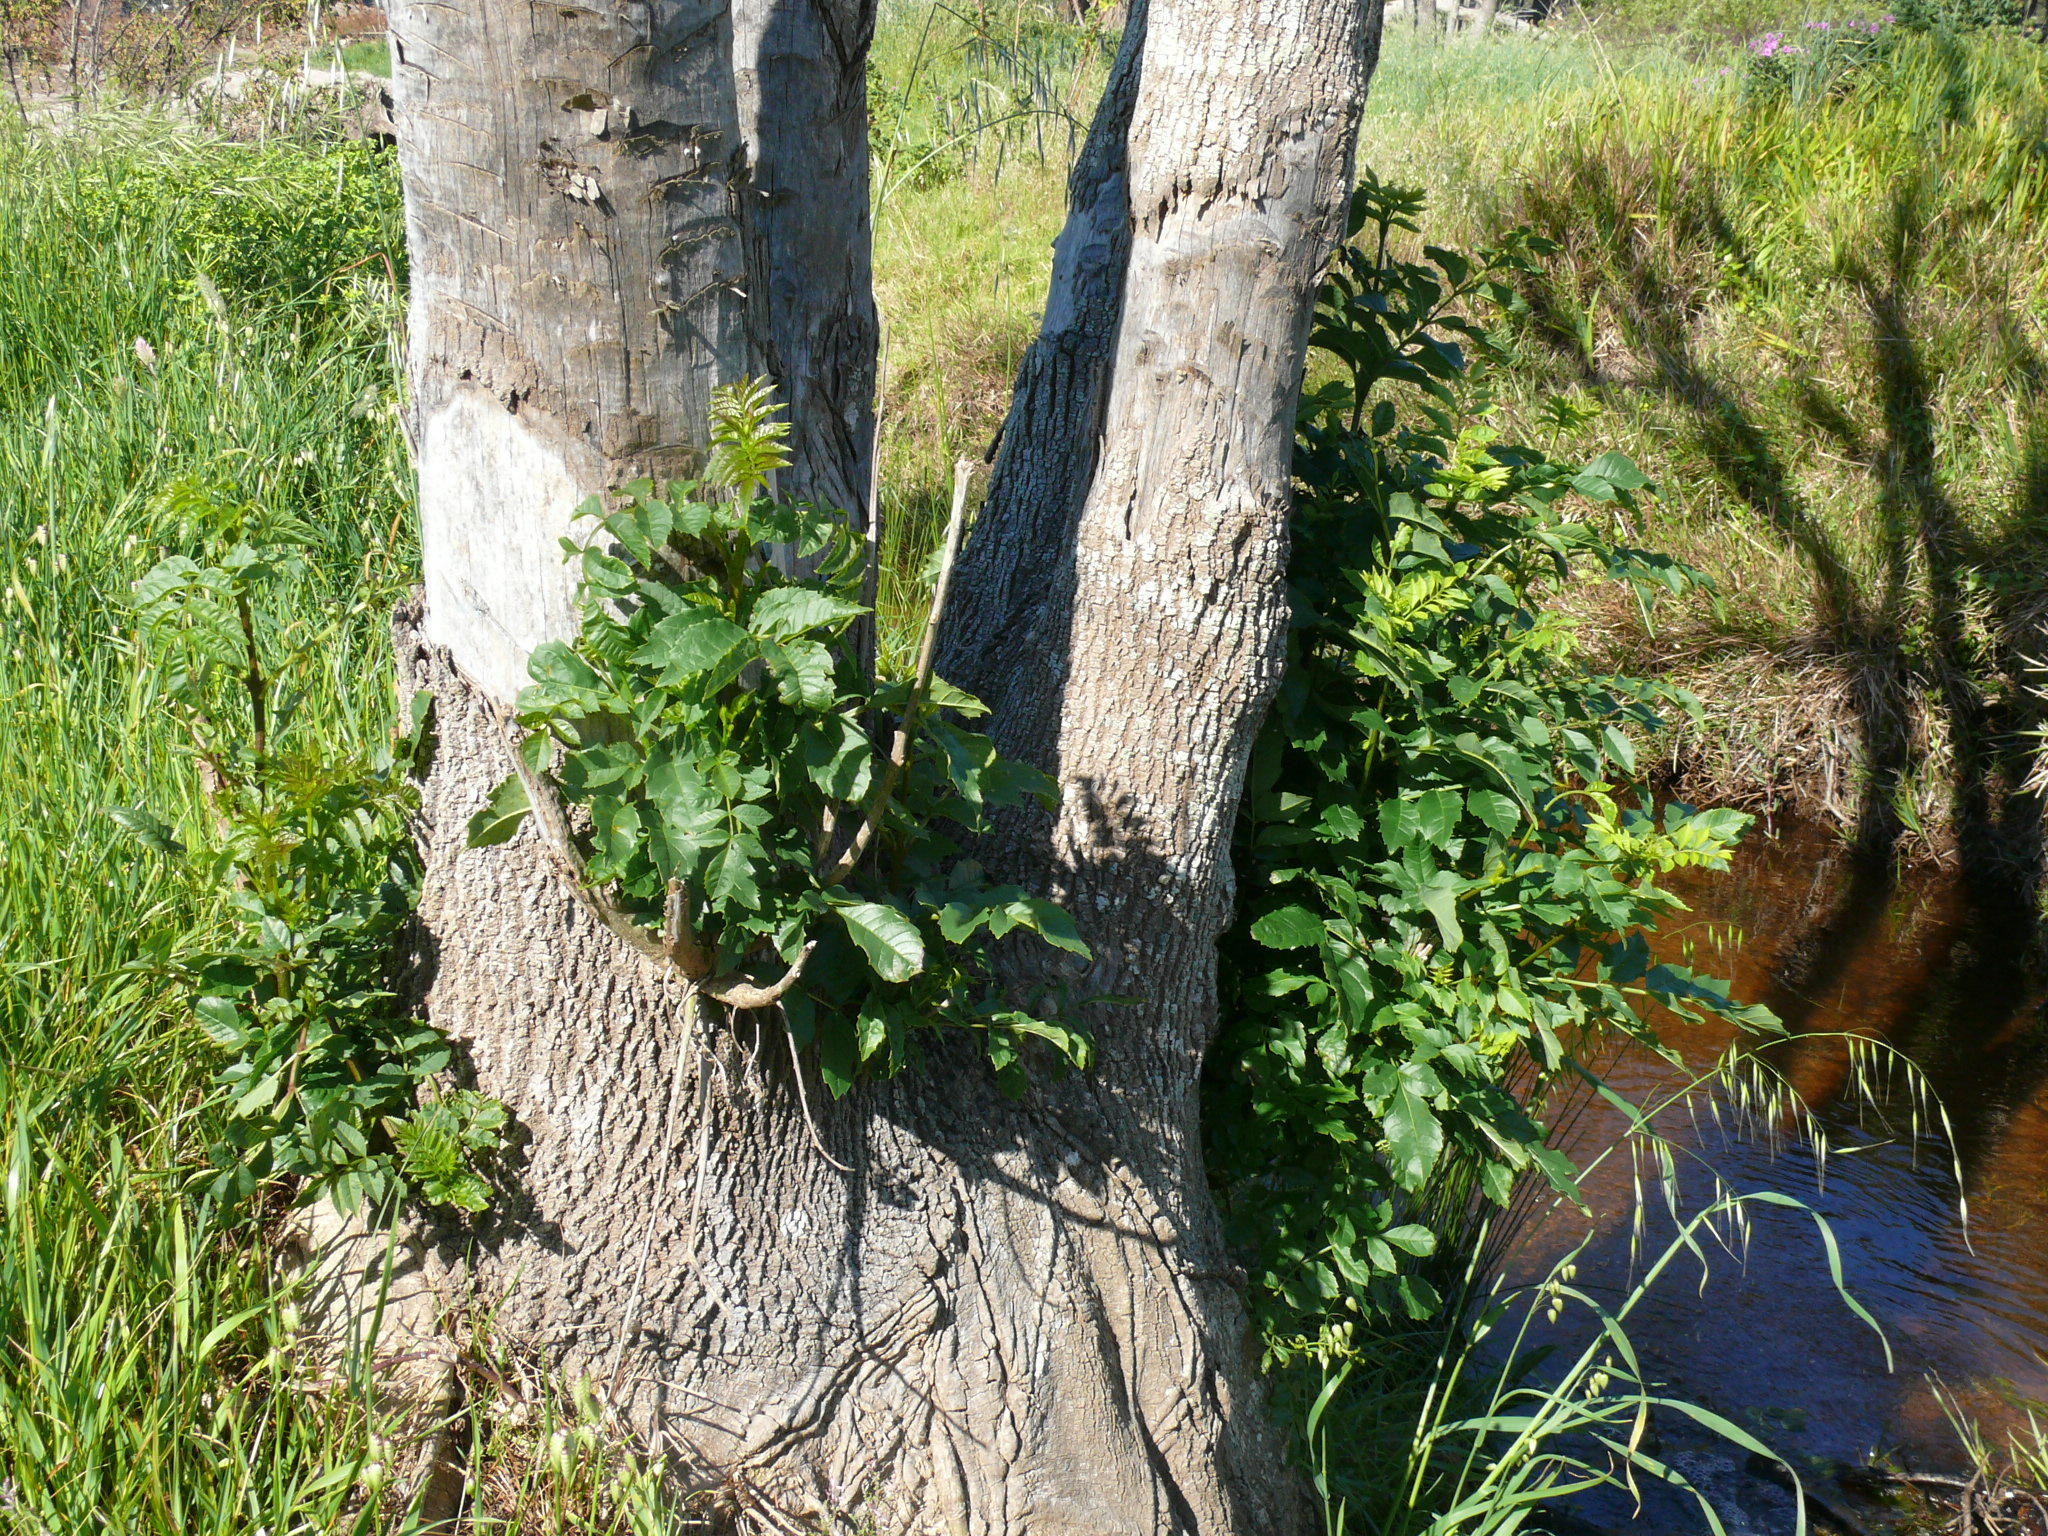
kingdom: Plantae
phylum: Tracheophyta
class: Magnoliopsida
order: Lamiales
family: Oleaceae
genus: Fraxinus
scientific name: Fraxinus pennsylvanica
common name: Green ash
